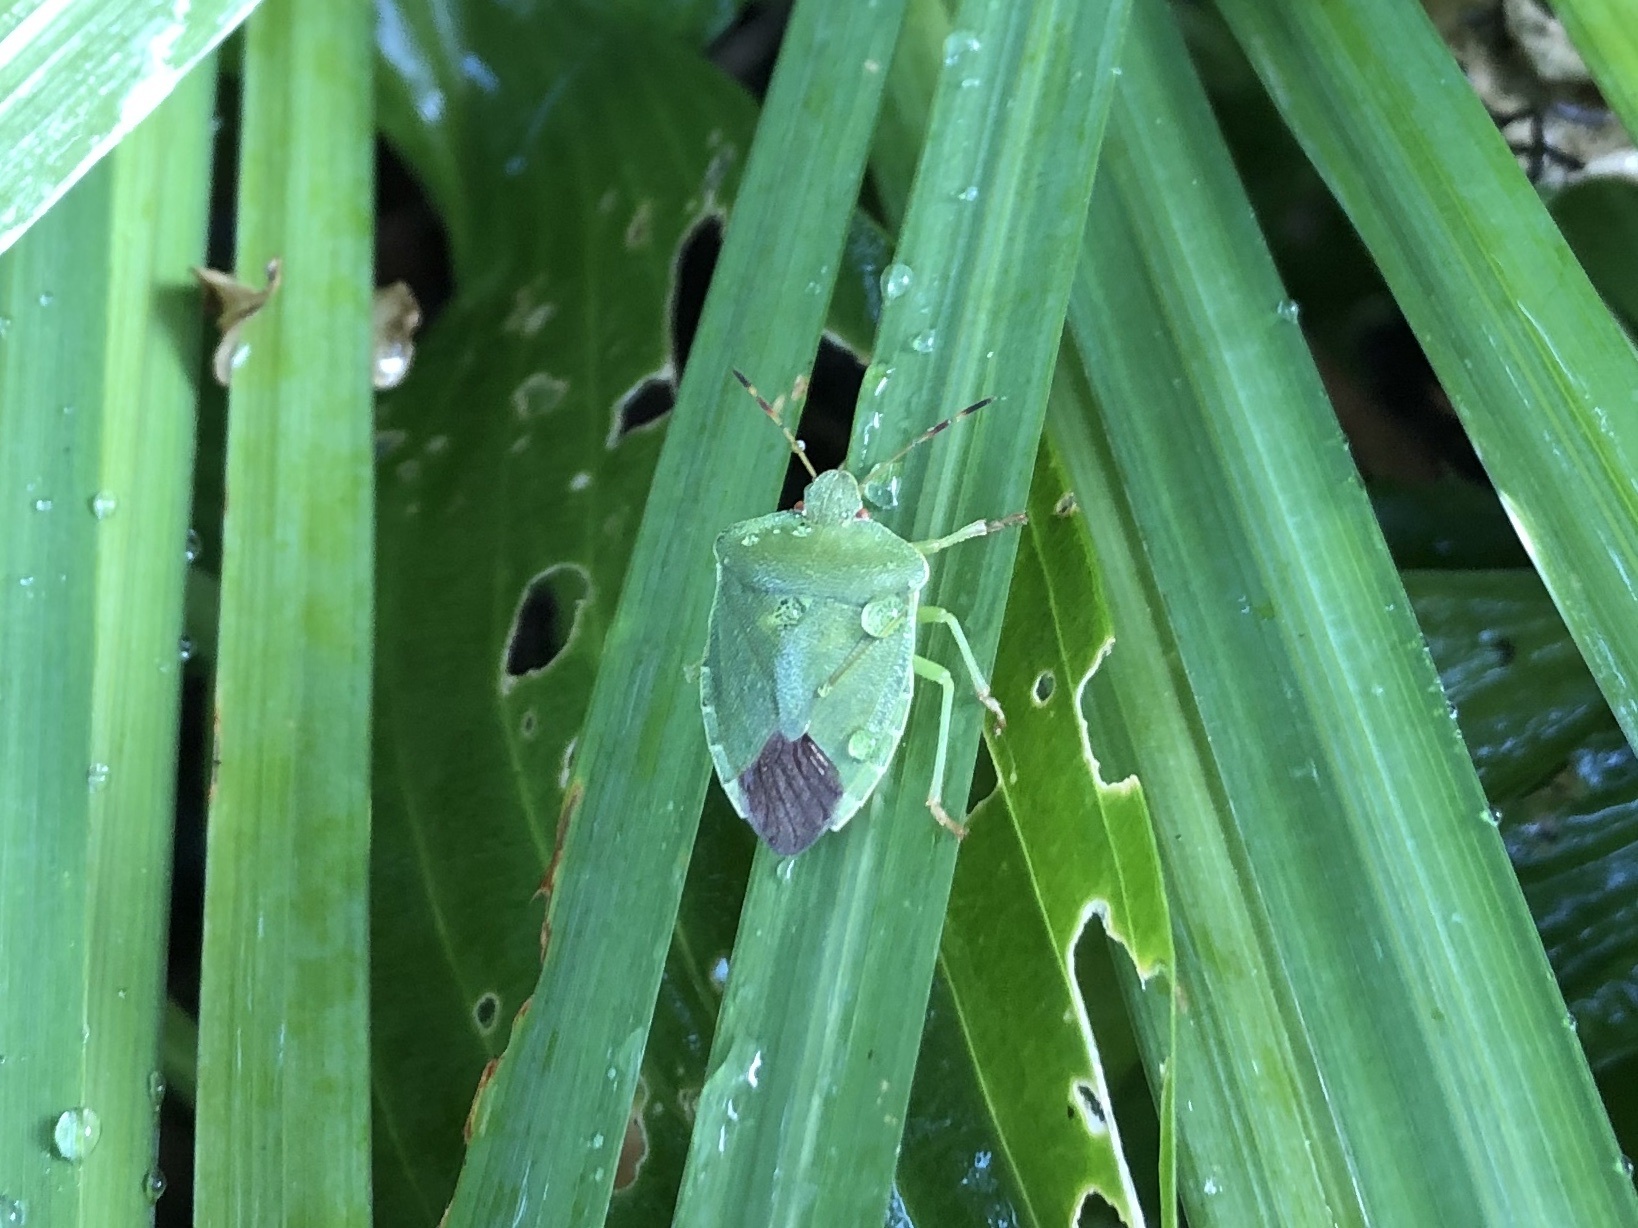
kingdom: Animalia
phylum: Arthropoda
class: Insecta
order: Hemiptera
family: Pentatomidae
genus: Palomena
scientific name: Palomena prasina
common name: Green shieldbug
